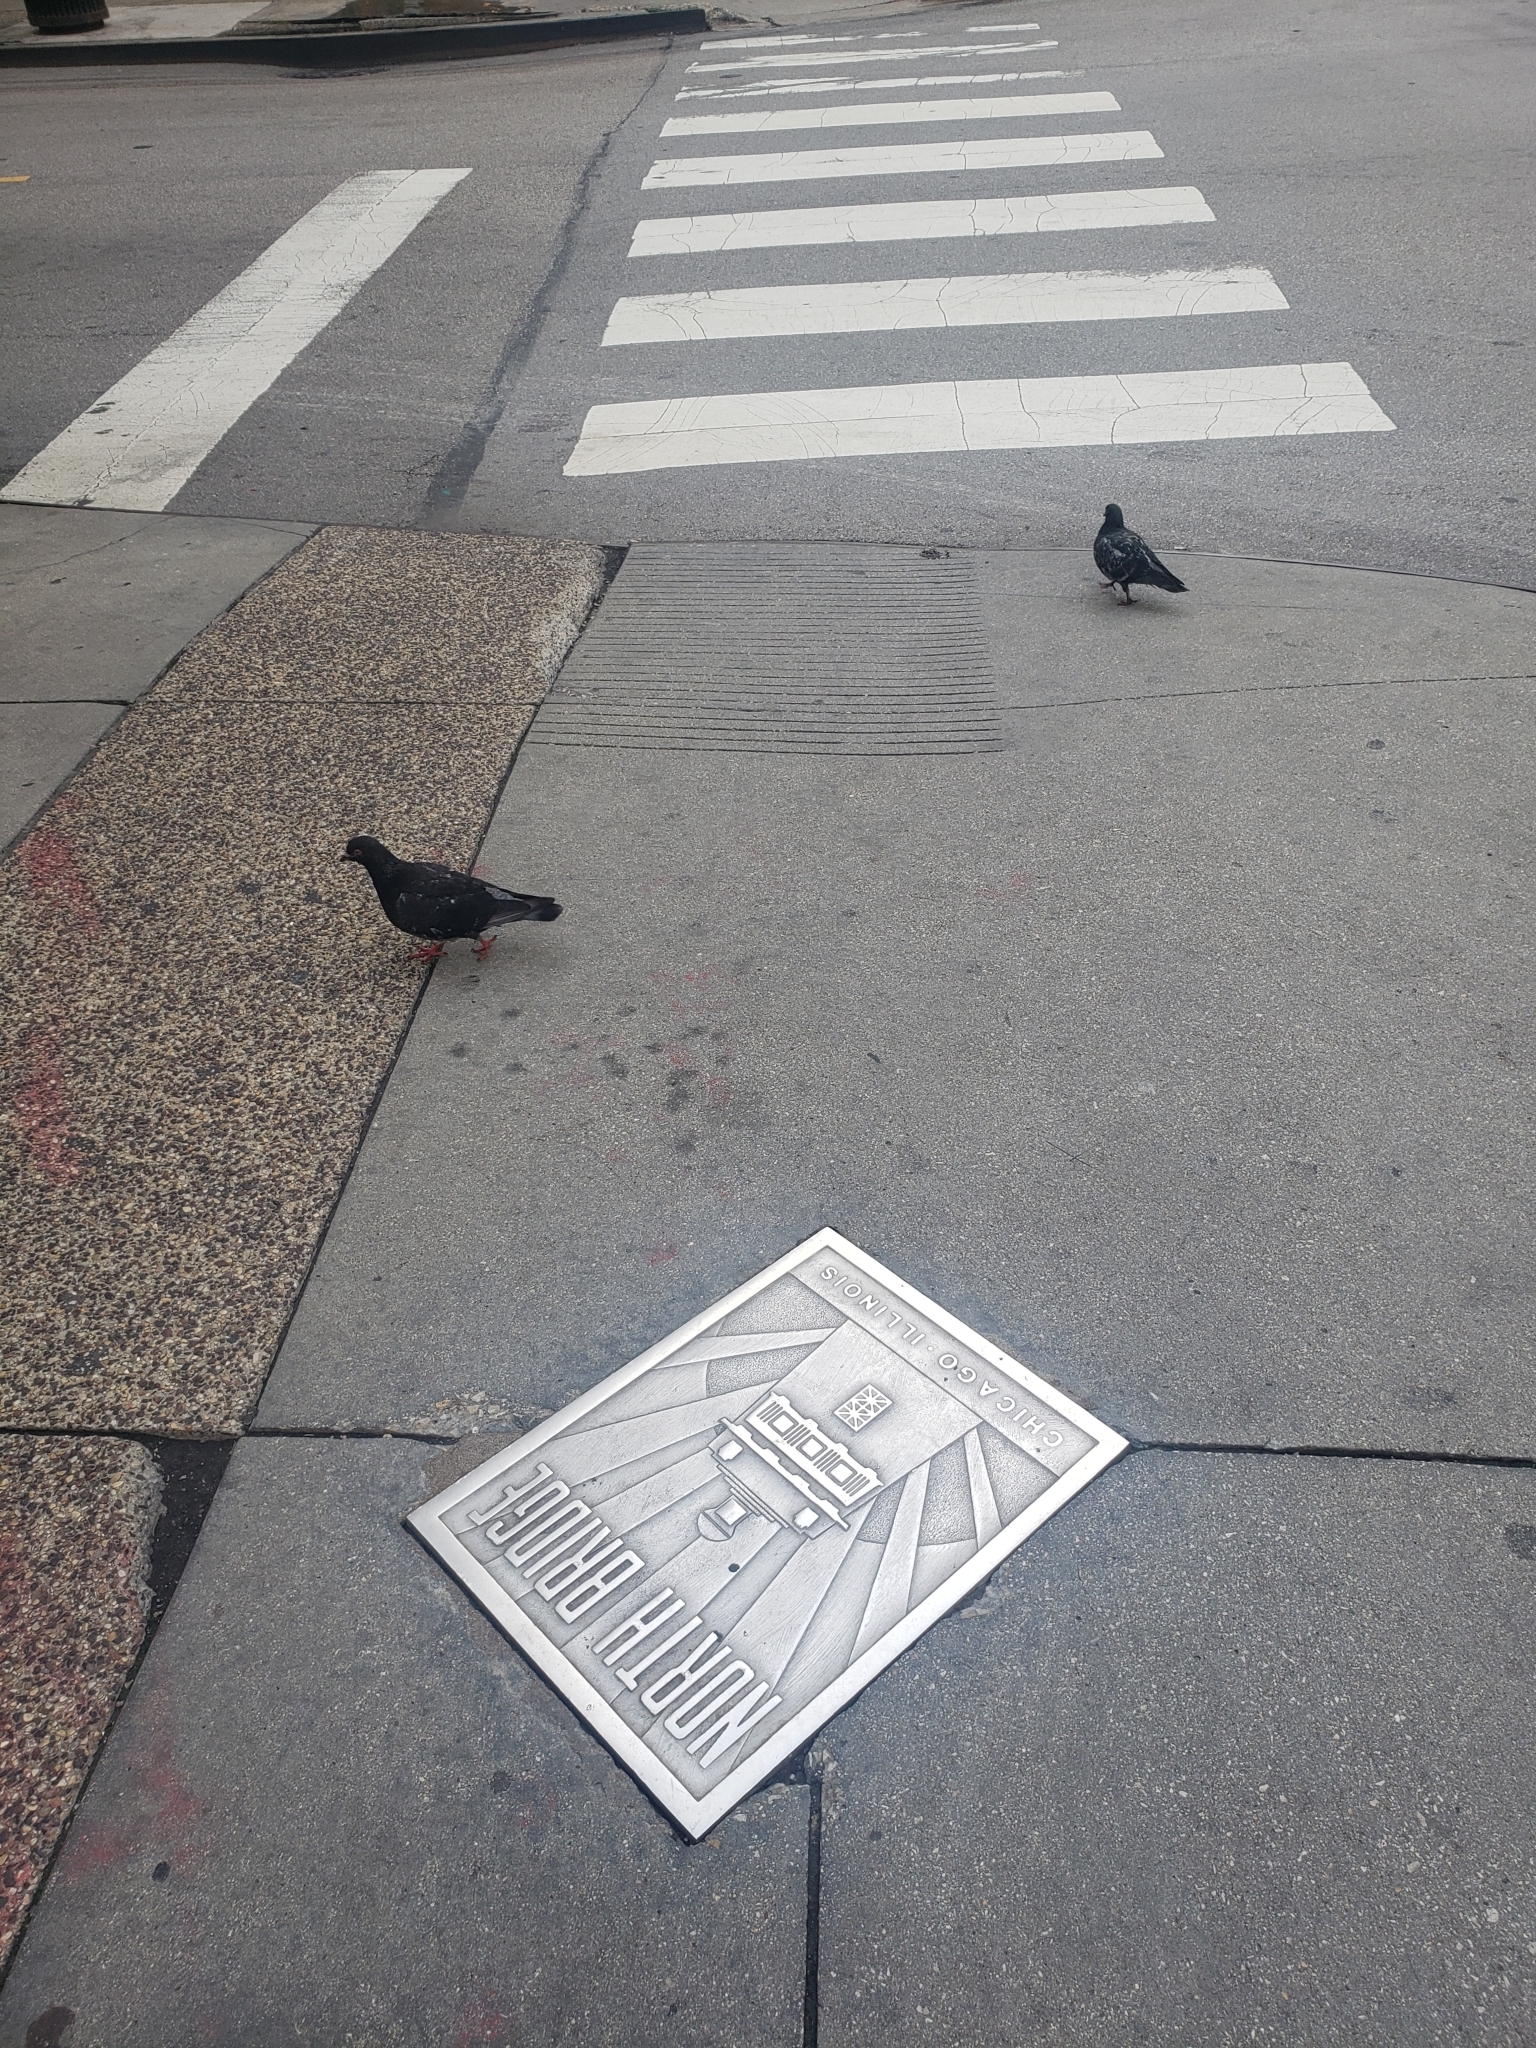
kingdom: Animalia
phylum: Chordata
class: Aves
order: Columbiformes
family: Columbidae
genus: Columba
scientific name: Columba livia
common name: Rock pigeon
